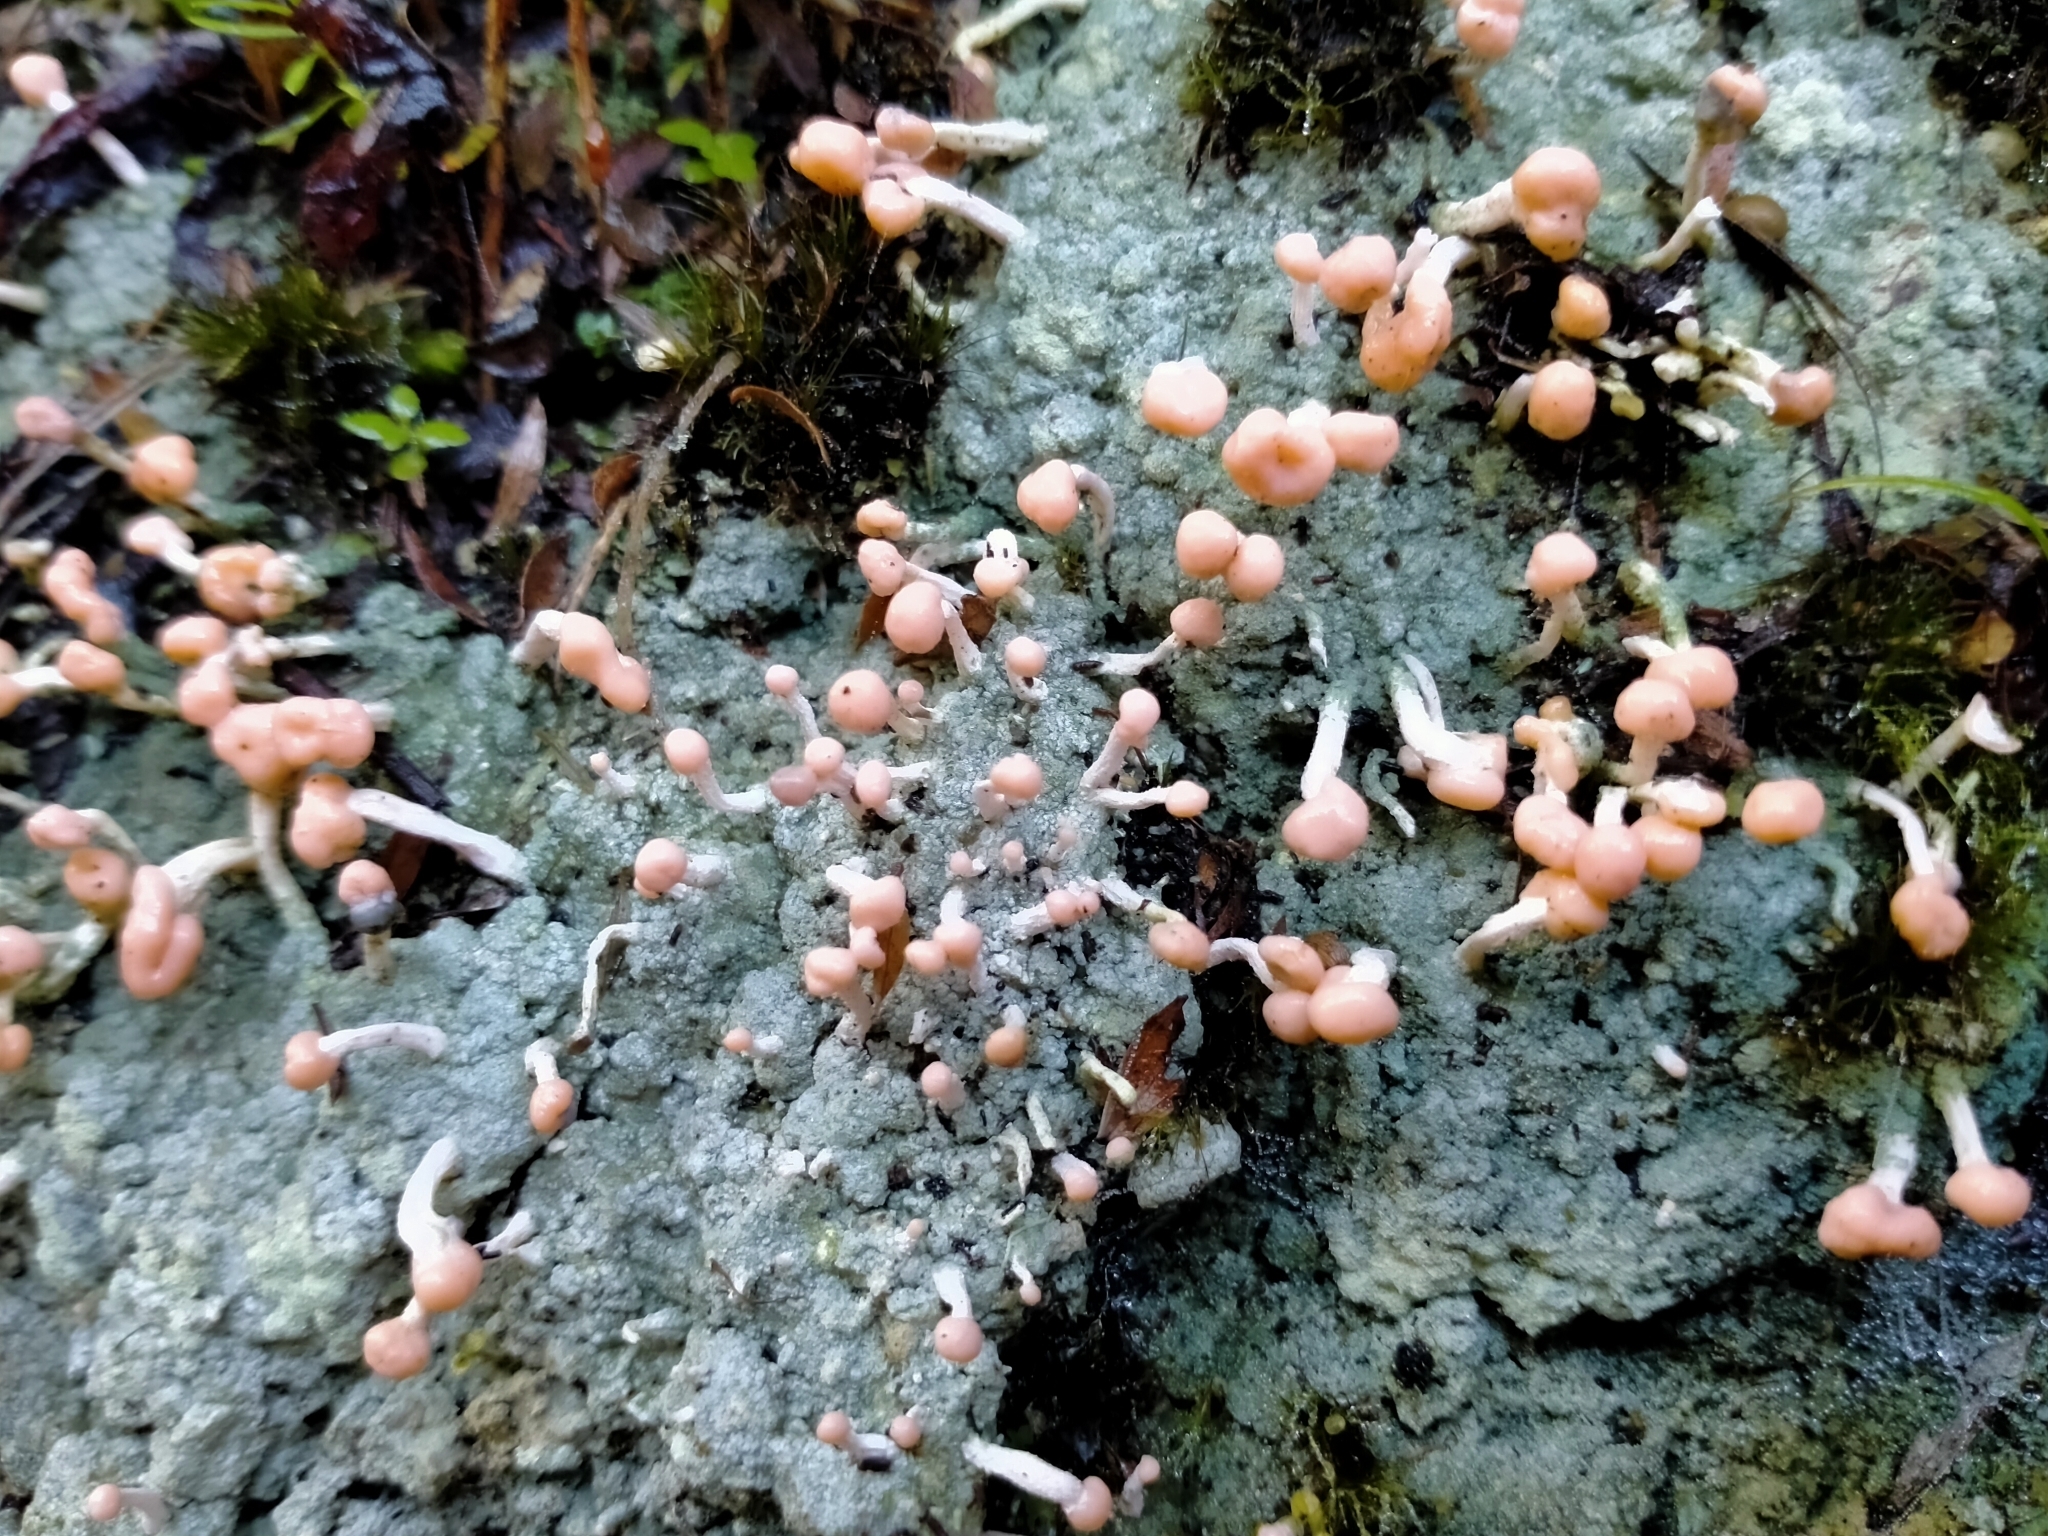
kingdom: Fungi
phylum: Ascomycota
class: Lecanoromycetes
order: Pertusariales
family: Icmadophilaceae
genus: Dibaeis
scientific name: Dibaeis arcuata
